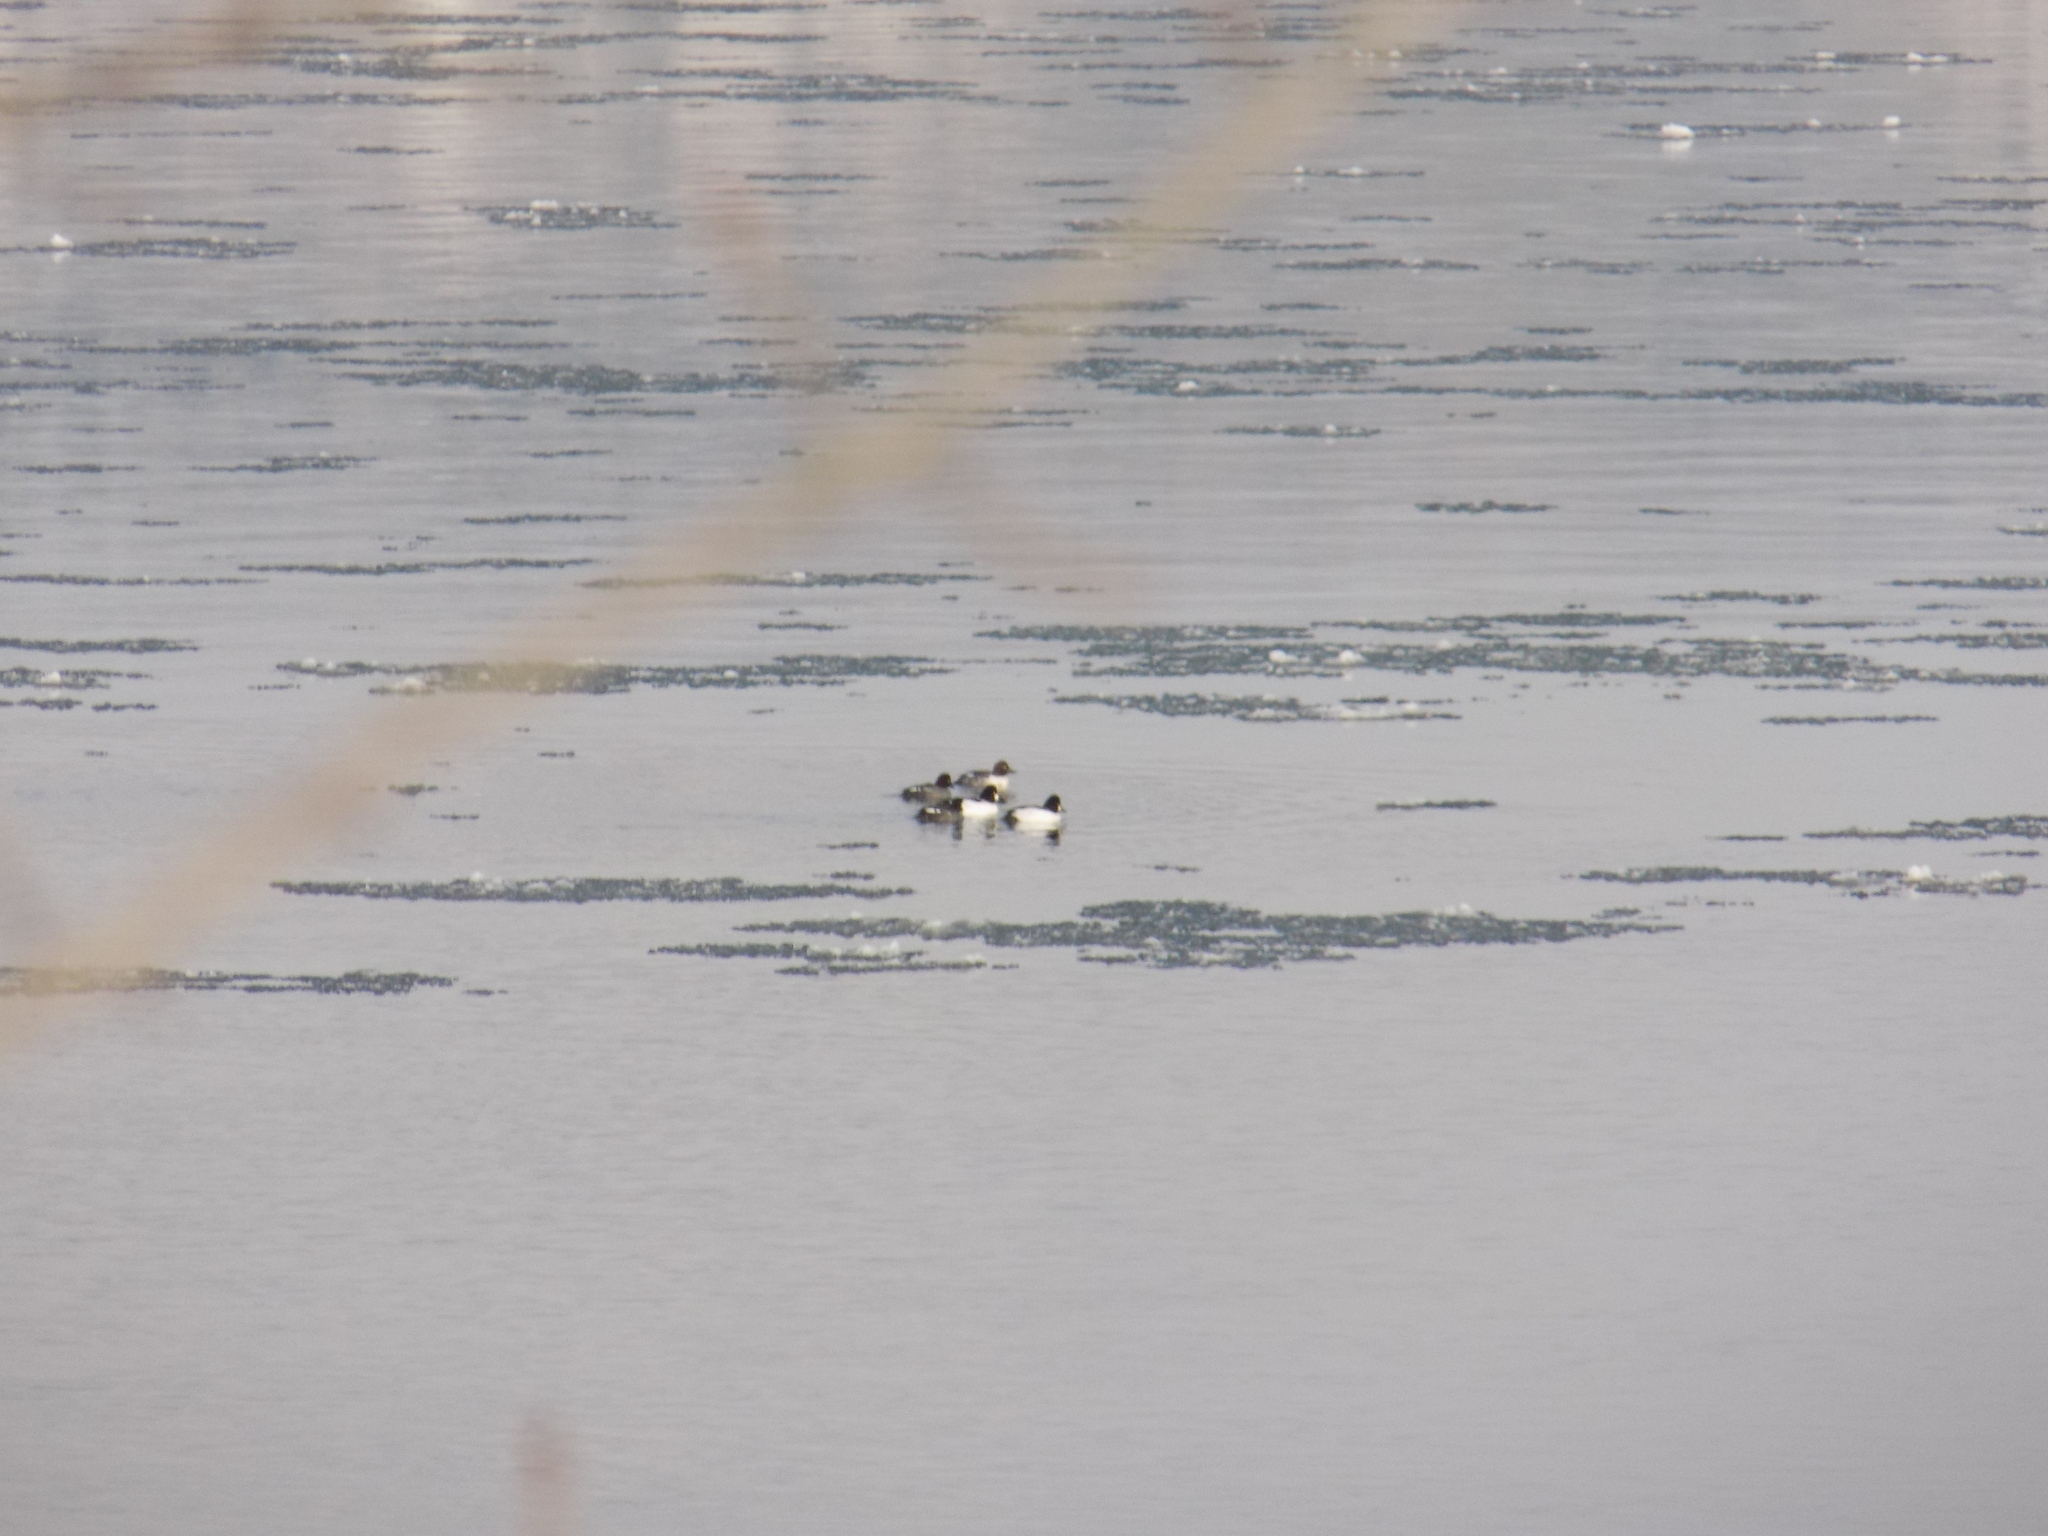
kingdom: Animalia
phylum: Chordata
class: Aves
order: Anseriformes
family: Anatidae
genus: Bucephala
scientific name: Bucephala clangula
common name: Common goldeneye
